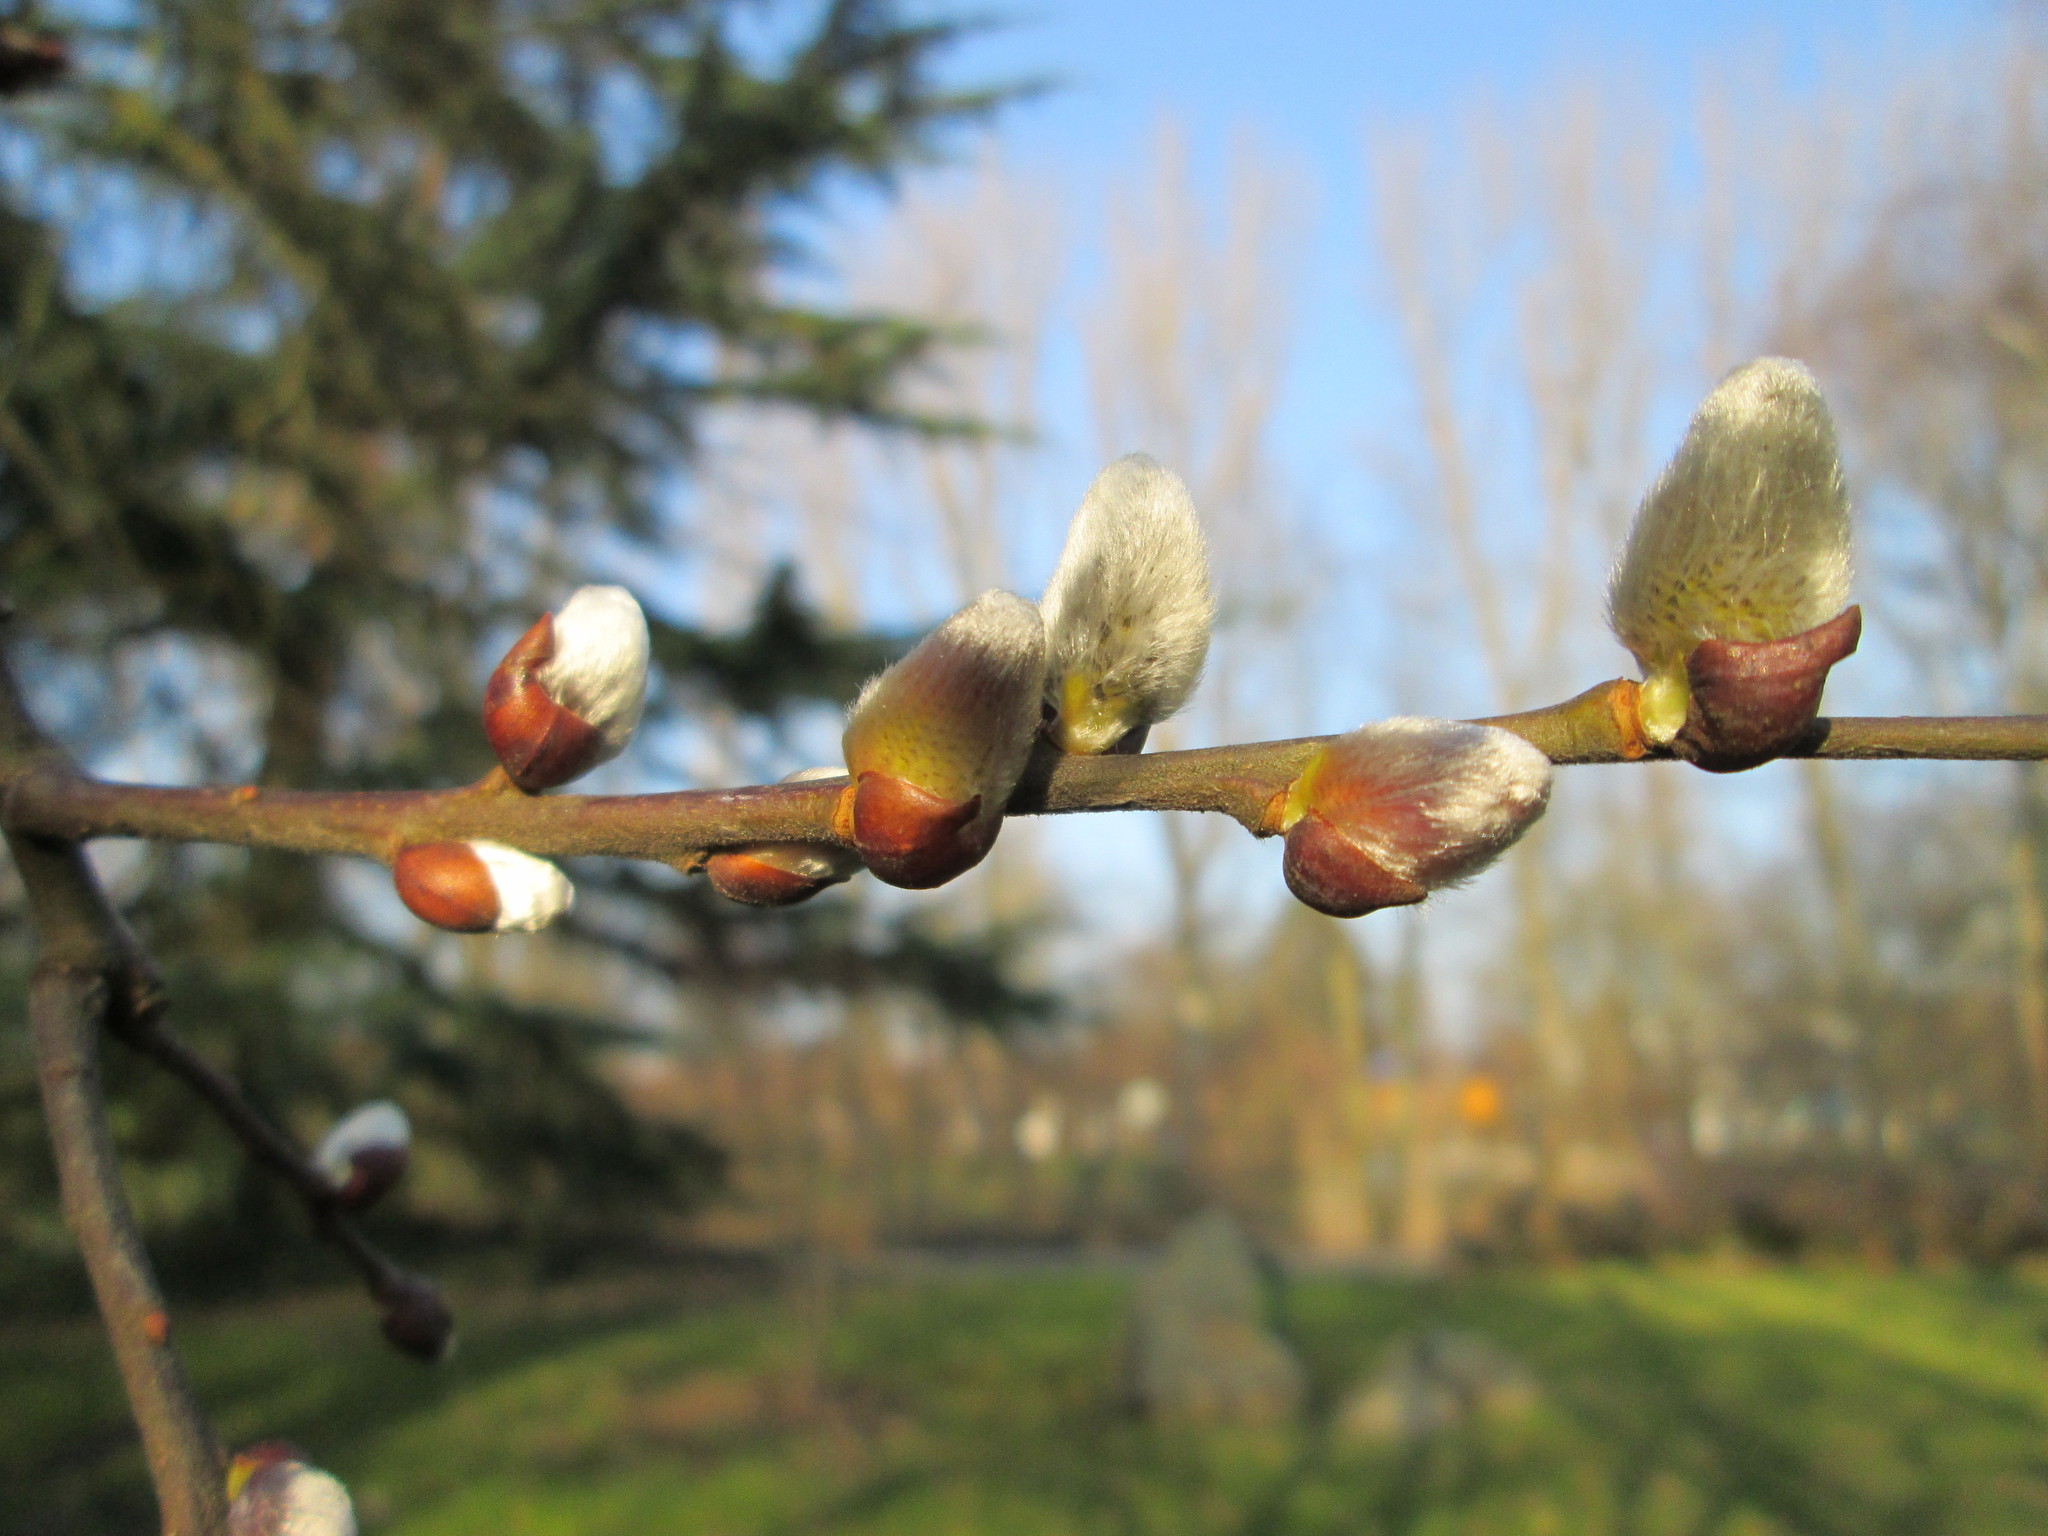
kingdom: Plantae
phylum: Tracheophyta
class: Magnoliopsida
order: Malpighiales
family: Salicaceae
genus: Salix
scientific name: Salix caprea
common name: Goat willow
